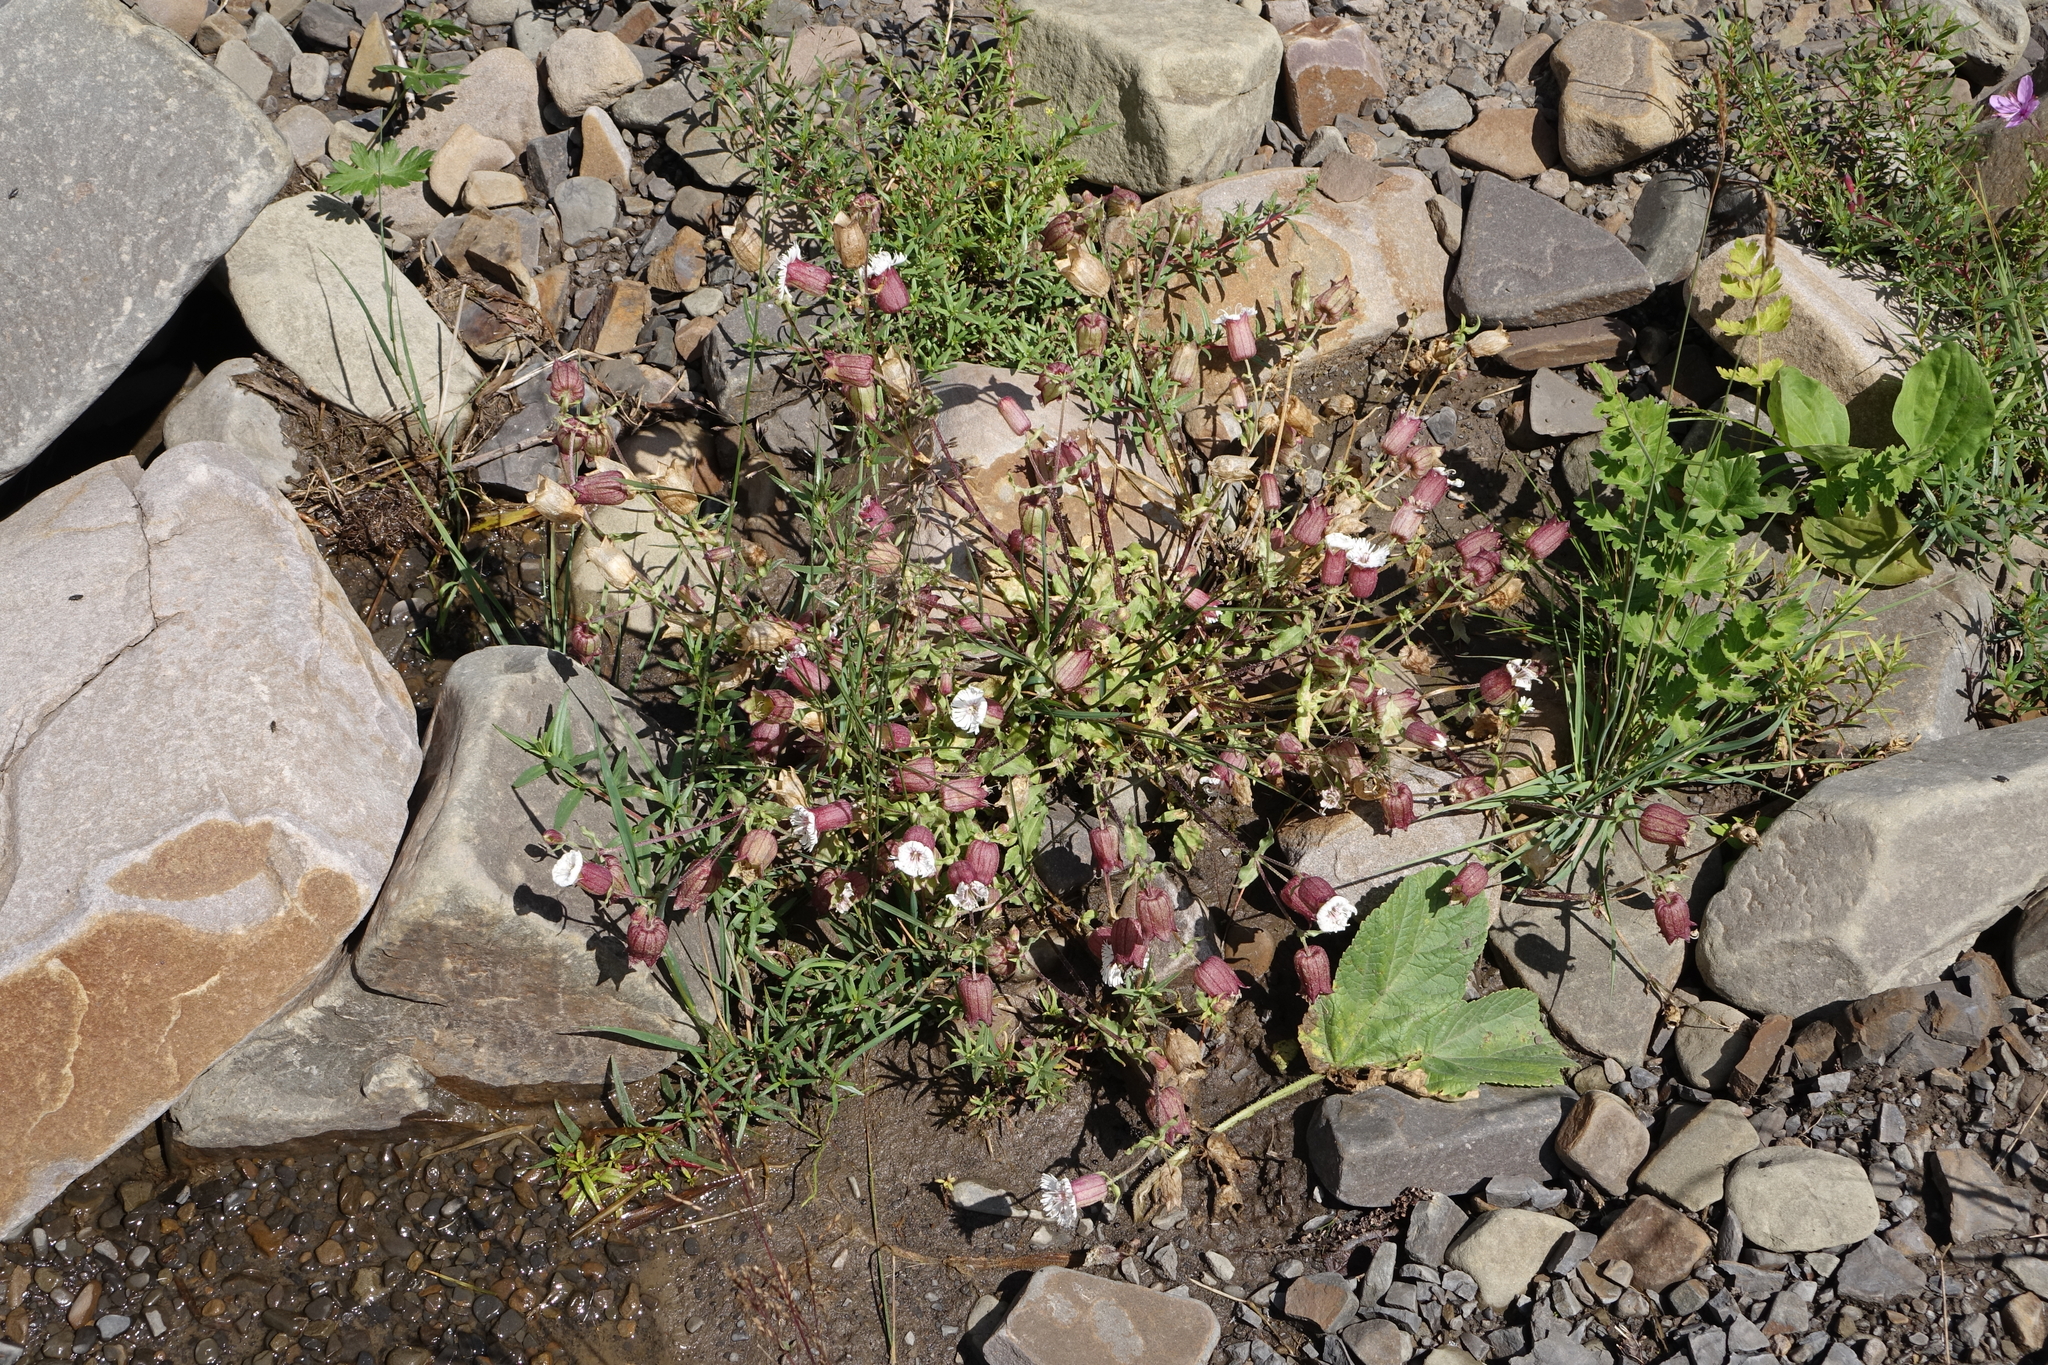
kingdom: Plantae
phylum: Tracheophyta
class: Magnoliopsida
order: Caryophyllales
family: Caryophyllaceae
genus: Silene
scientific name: Silene lacera
